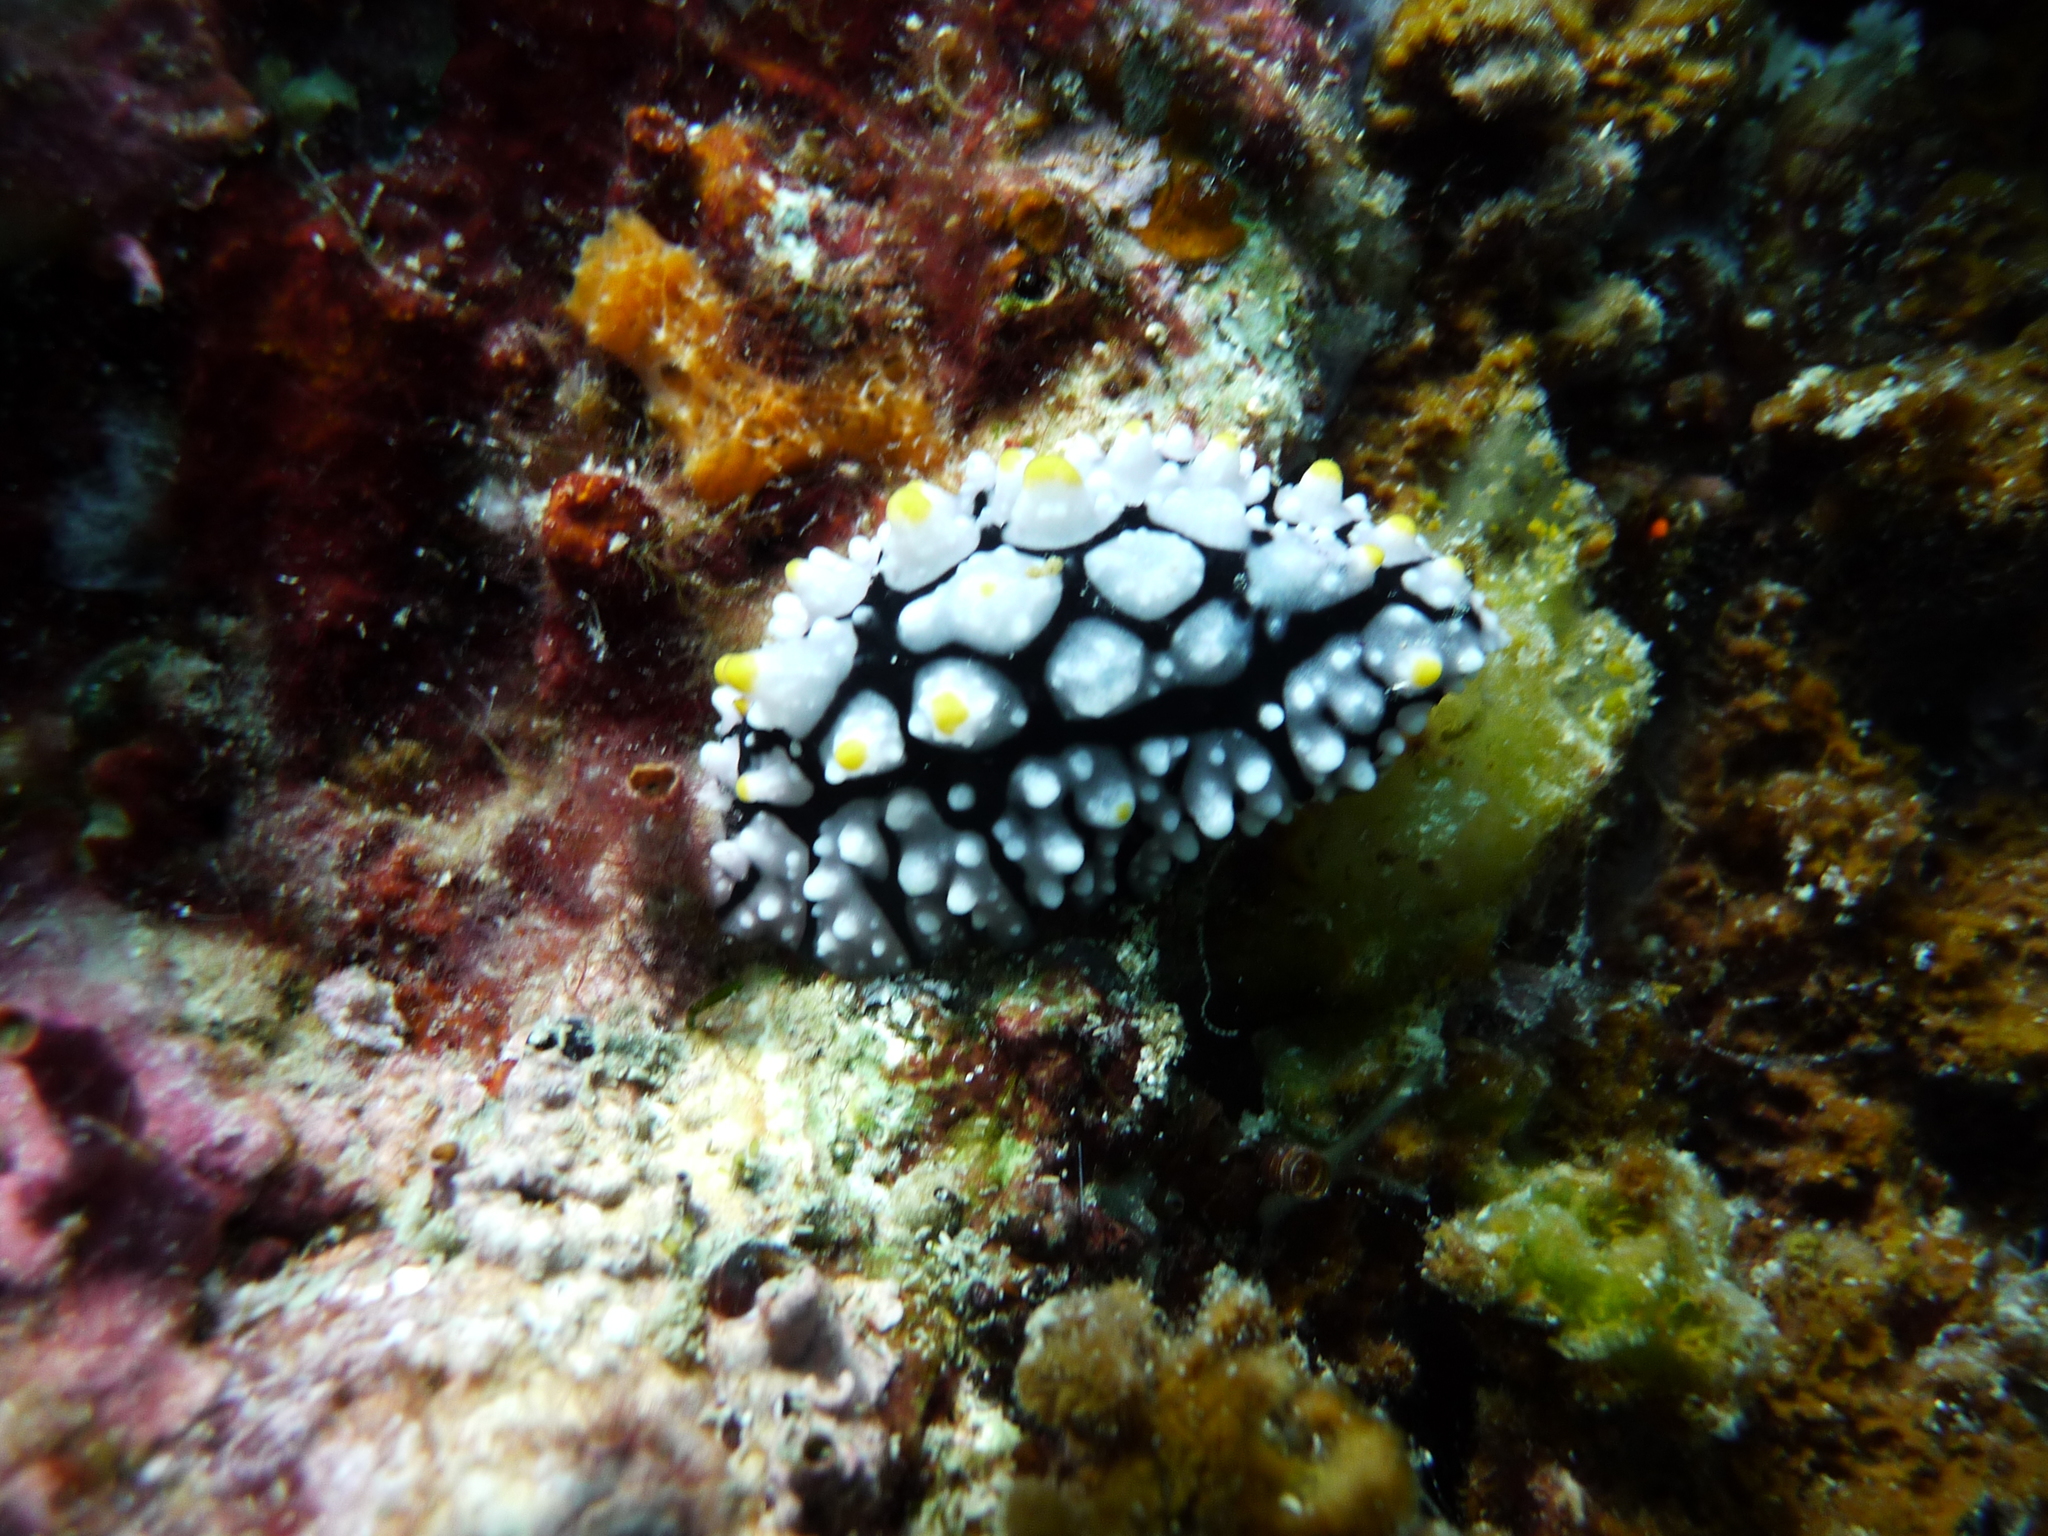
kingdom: Animalia
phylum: Mollusca
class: Gastropoda
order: Nudibranchia
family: Phyllidiidae
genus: Phyllidia
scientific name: Phyllidia elegans
